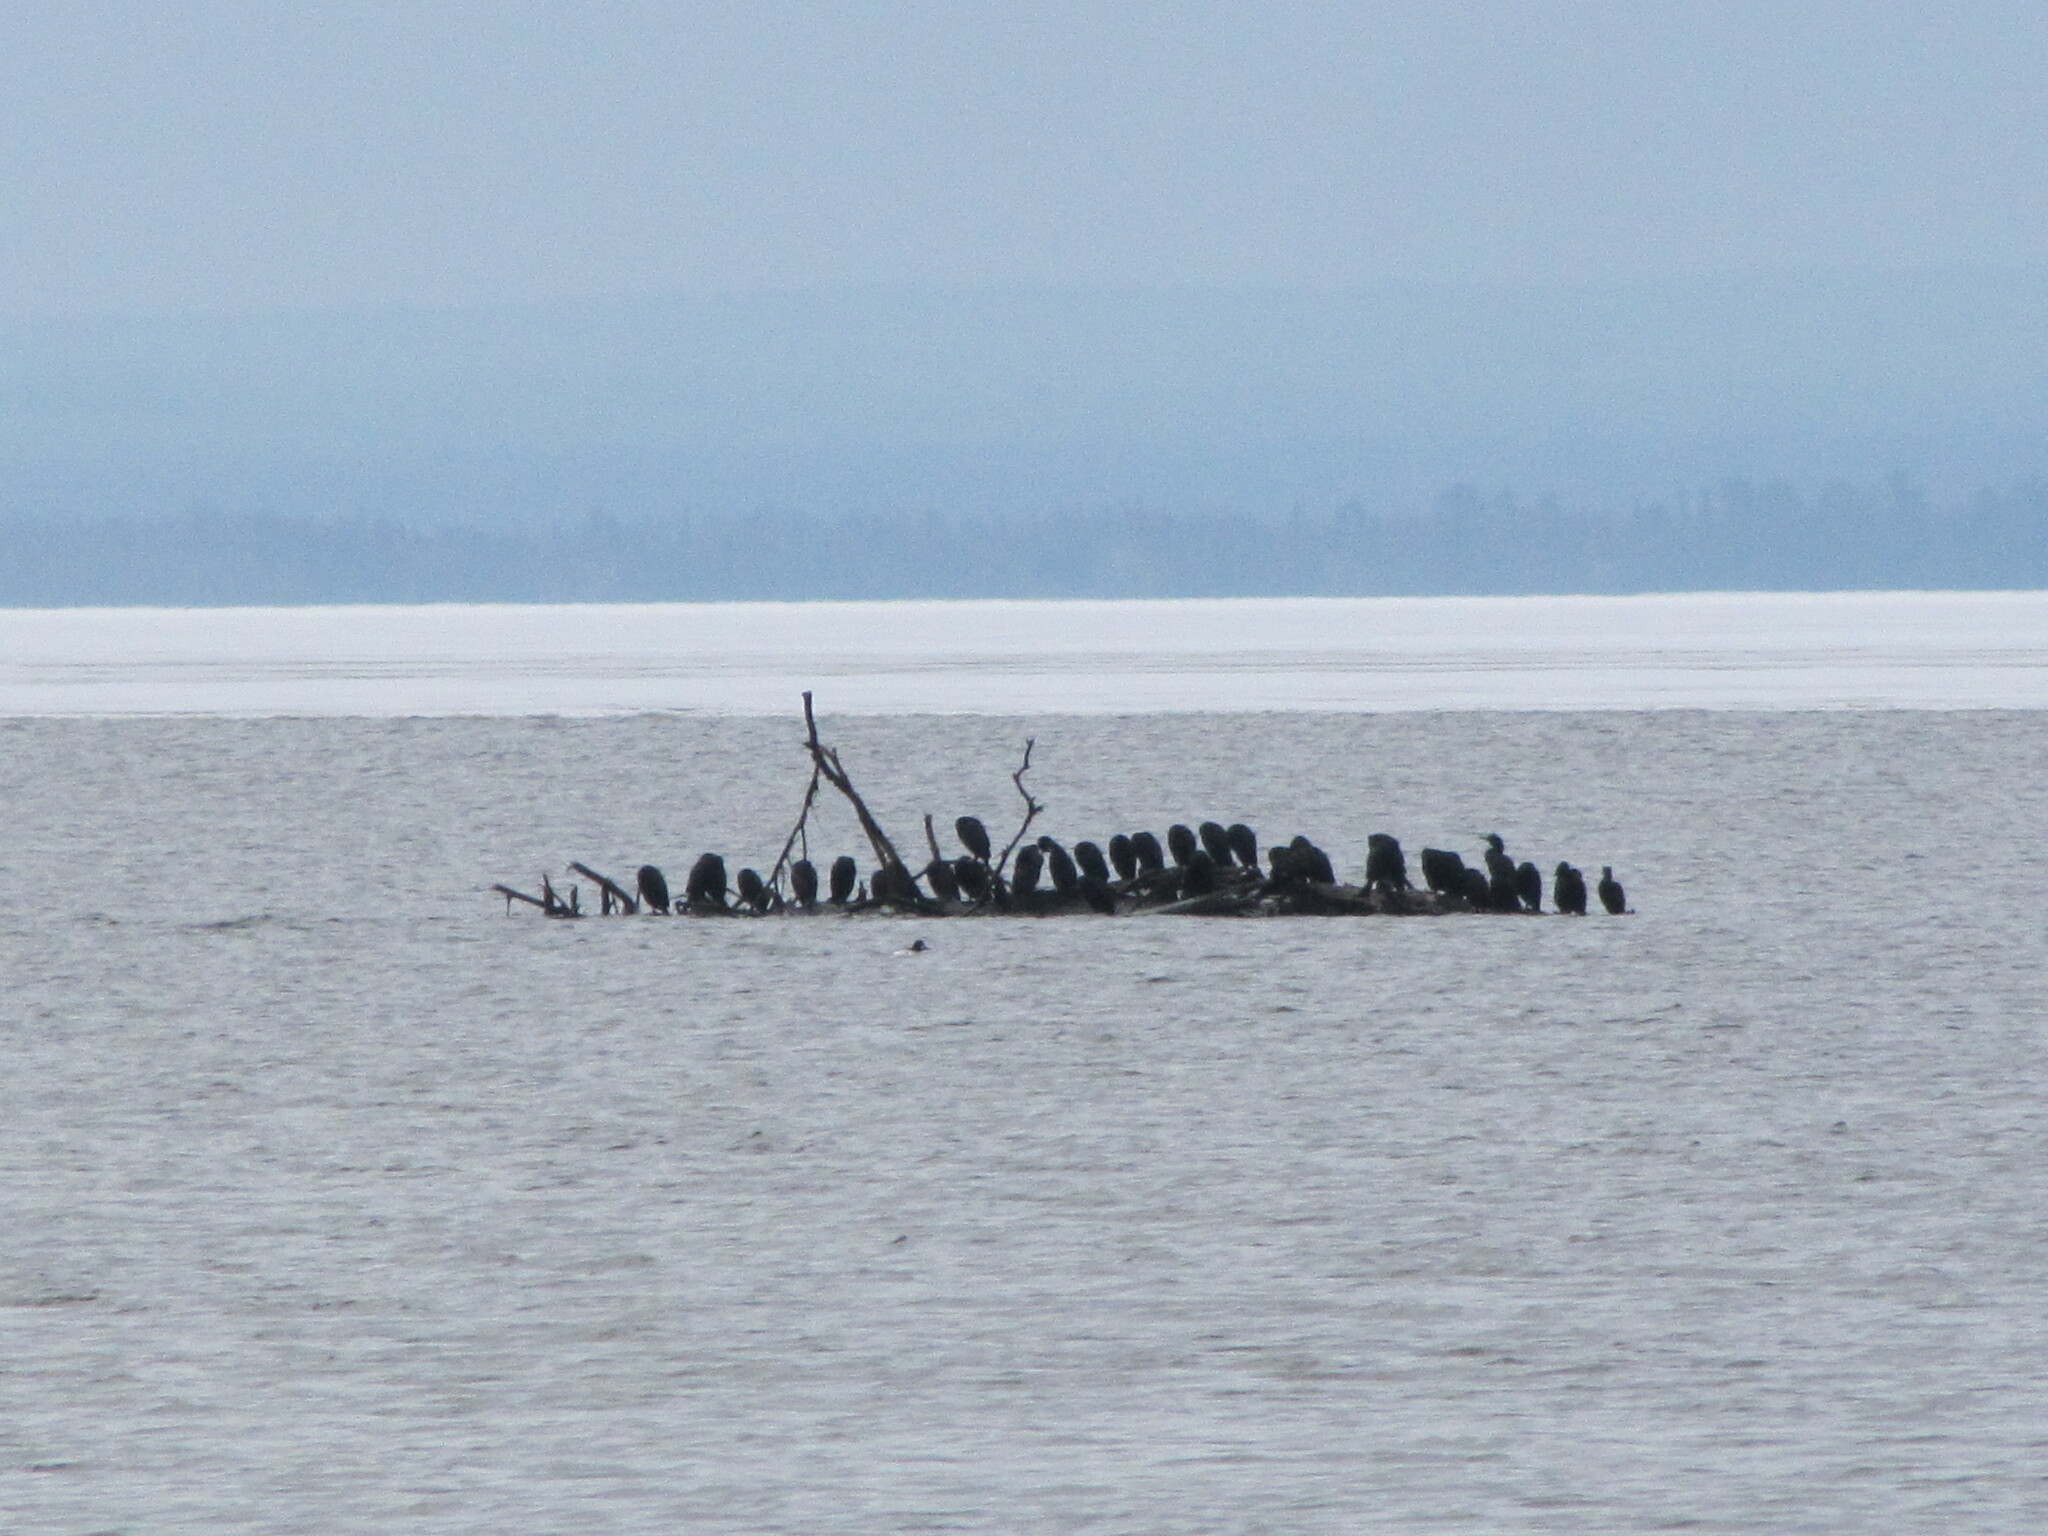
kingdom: Animalia
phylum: Chordata
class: Aves
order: Suliformes
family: Phalacrocoracidae
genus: Phalacrocorax
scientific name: Phalacrocorax auritus
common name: Double-crested cormorant
